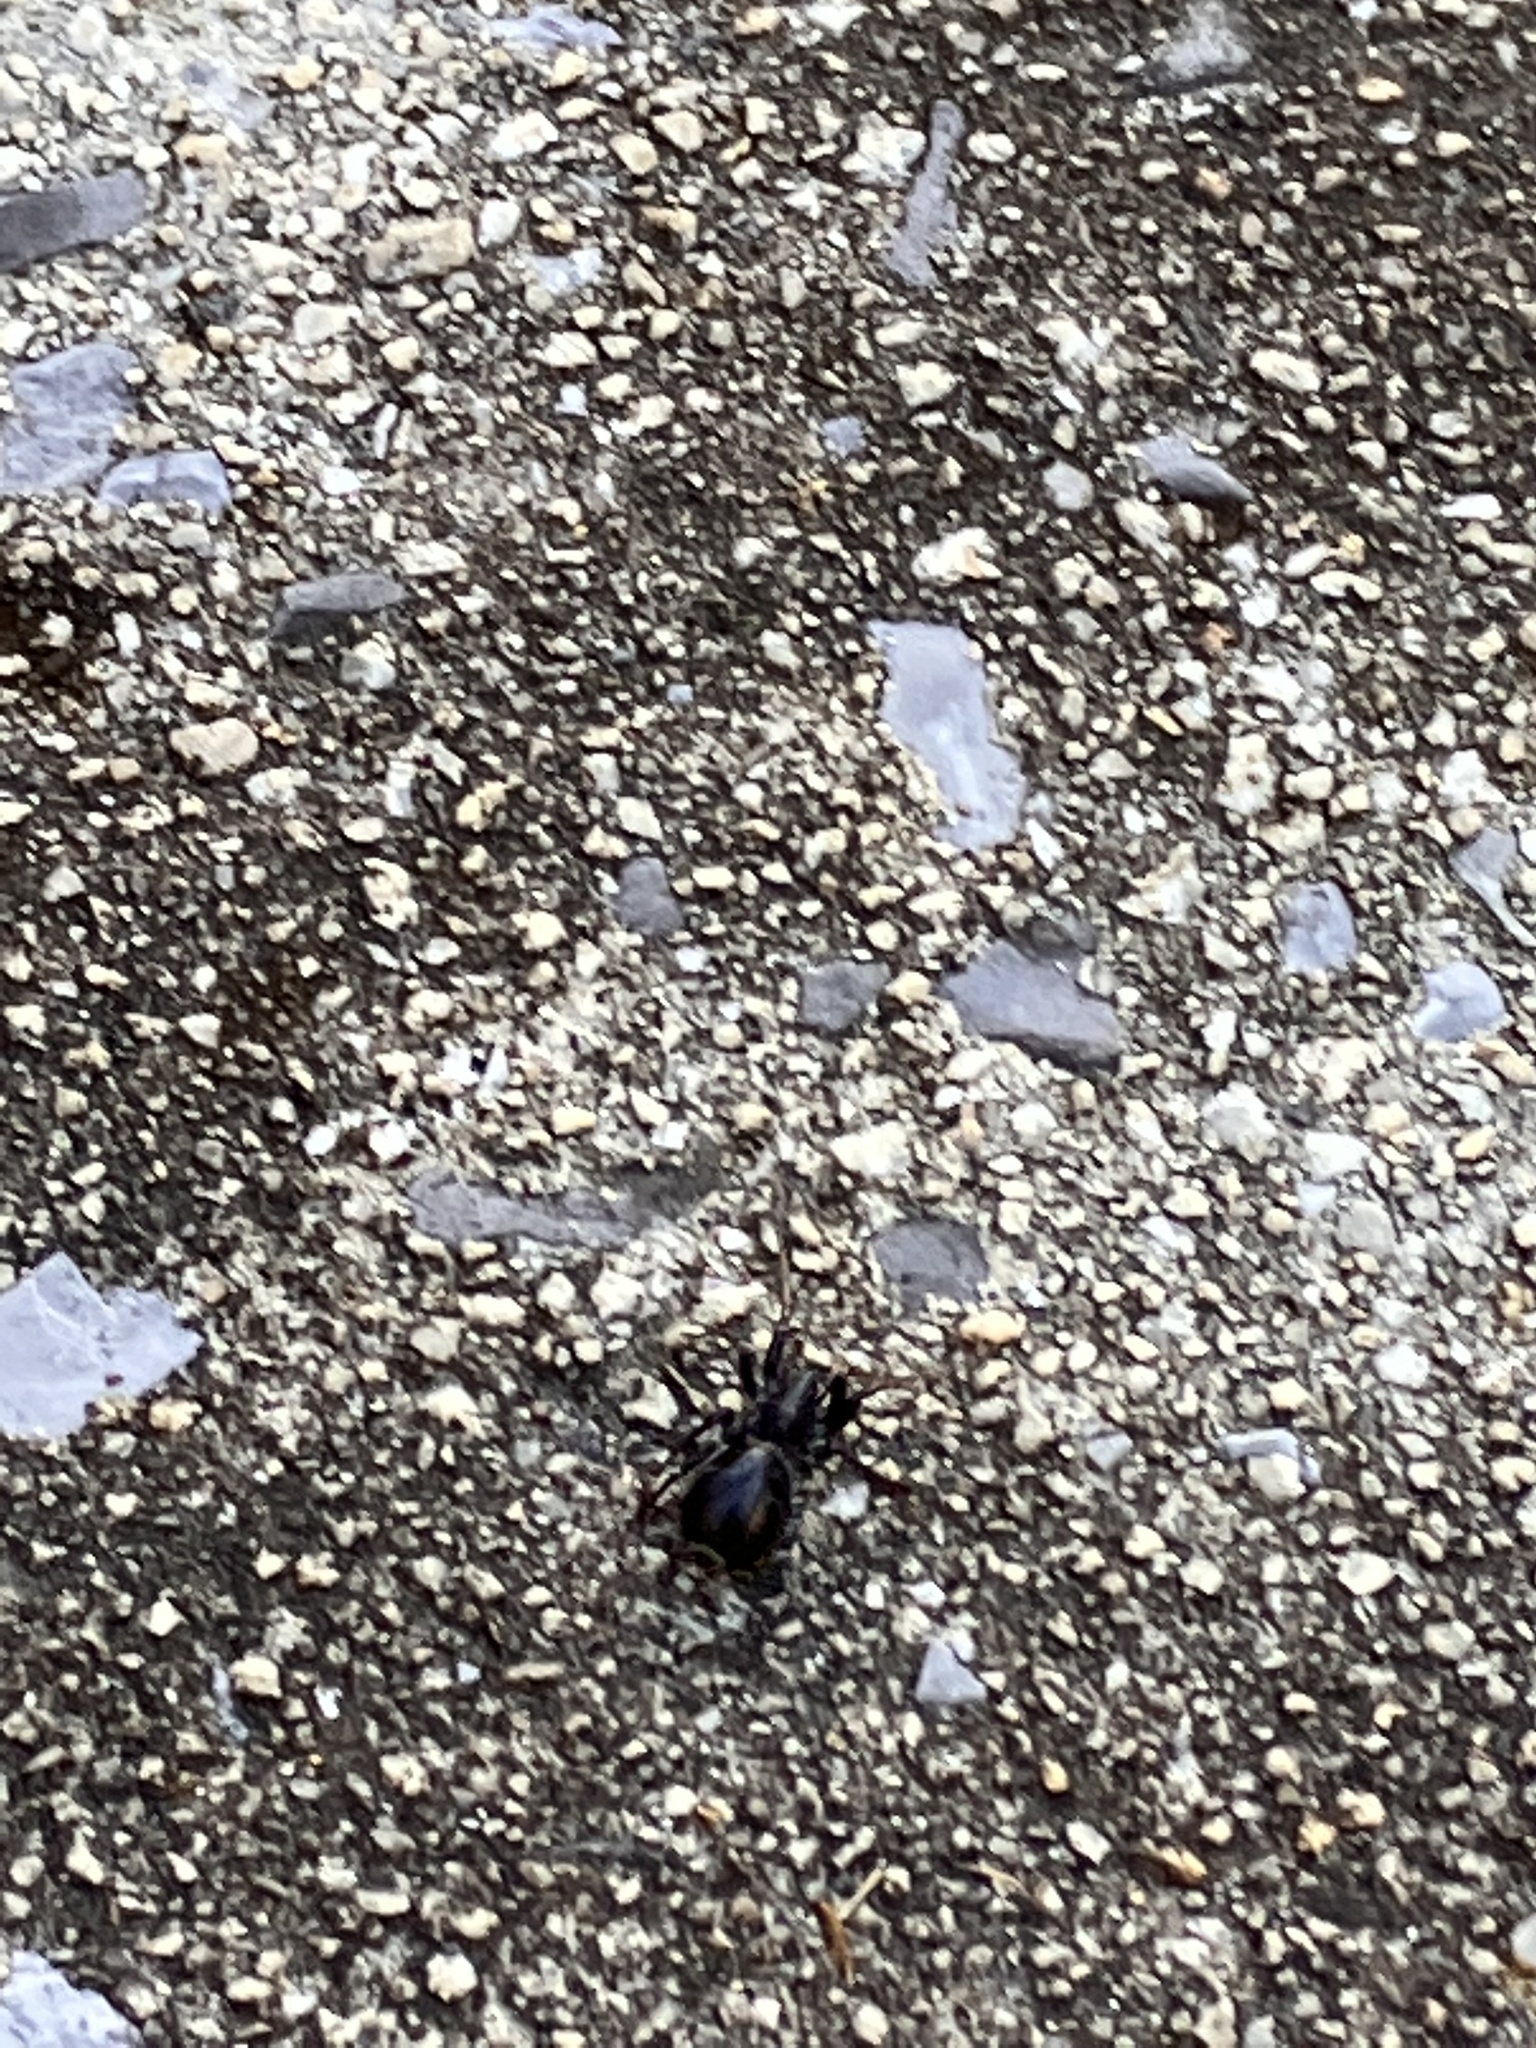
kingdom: Animalia
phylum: Arthropoda
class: Arachnida
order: Araneae
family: Theridiidae
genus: Steatoda
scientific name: Steatoda borealis
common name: Boreal combfoot
